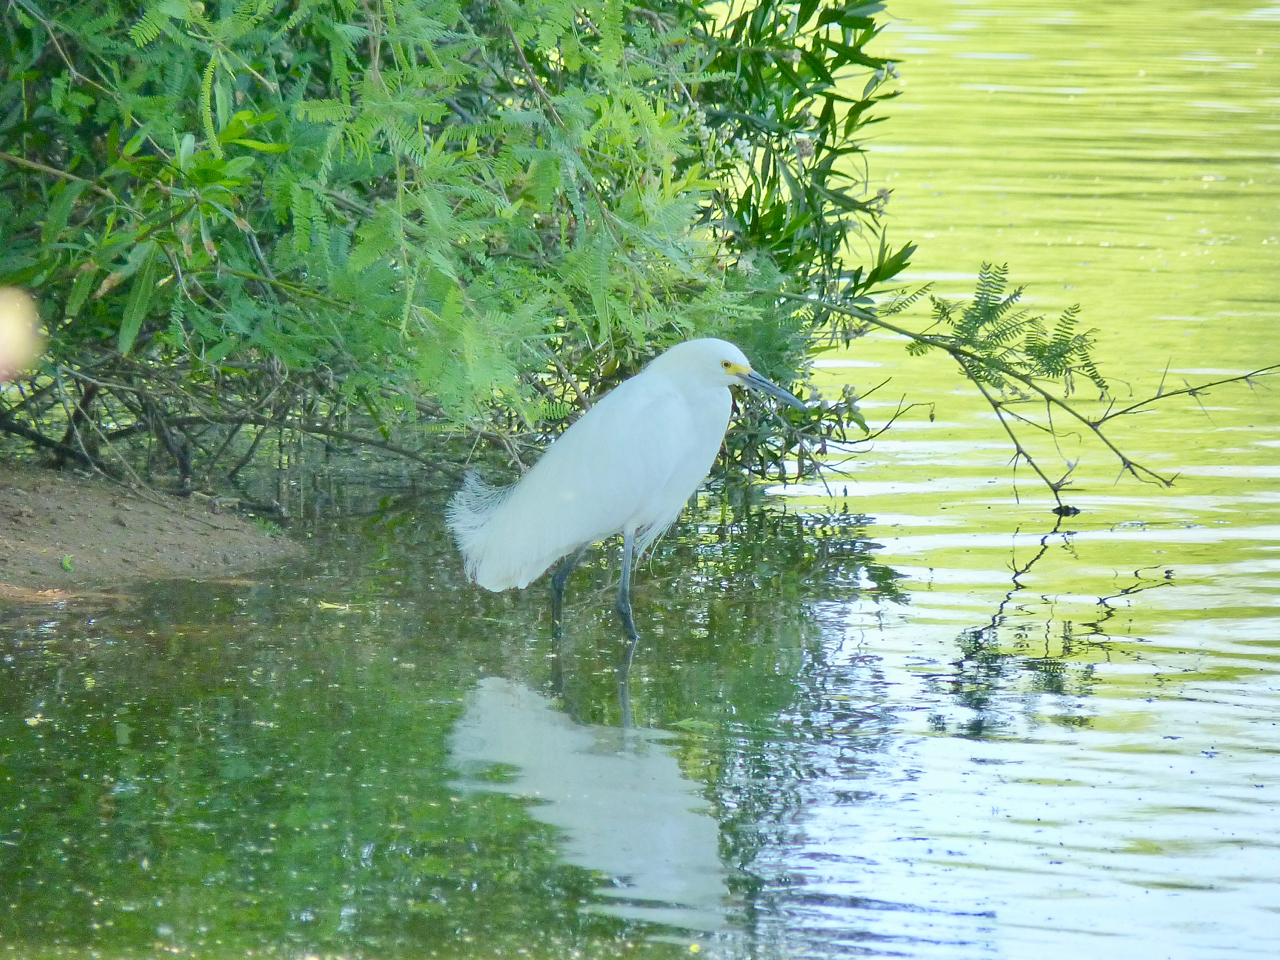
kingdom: Animalia
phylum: Chordata
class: Aves
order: Pelecaniformes
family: Ardeidae
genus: Egretta
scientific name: Egretta thula
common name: Snowy egret
